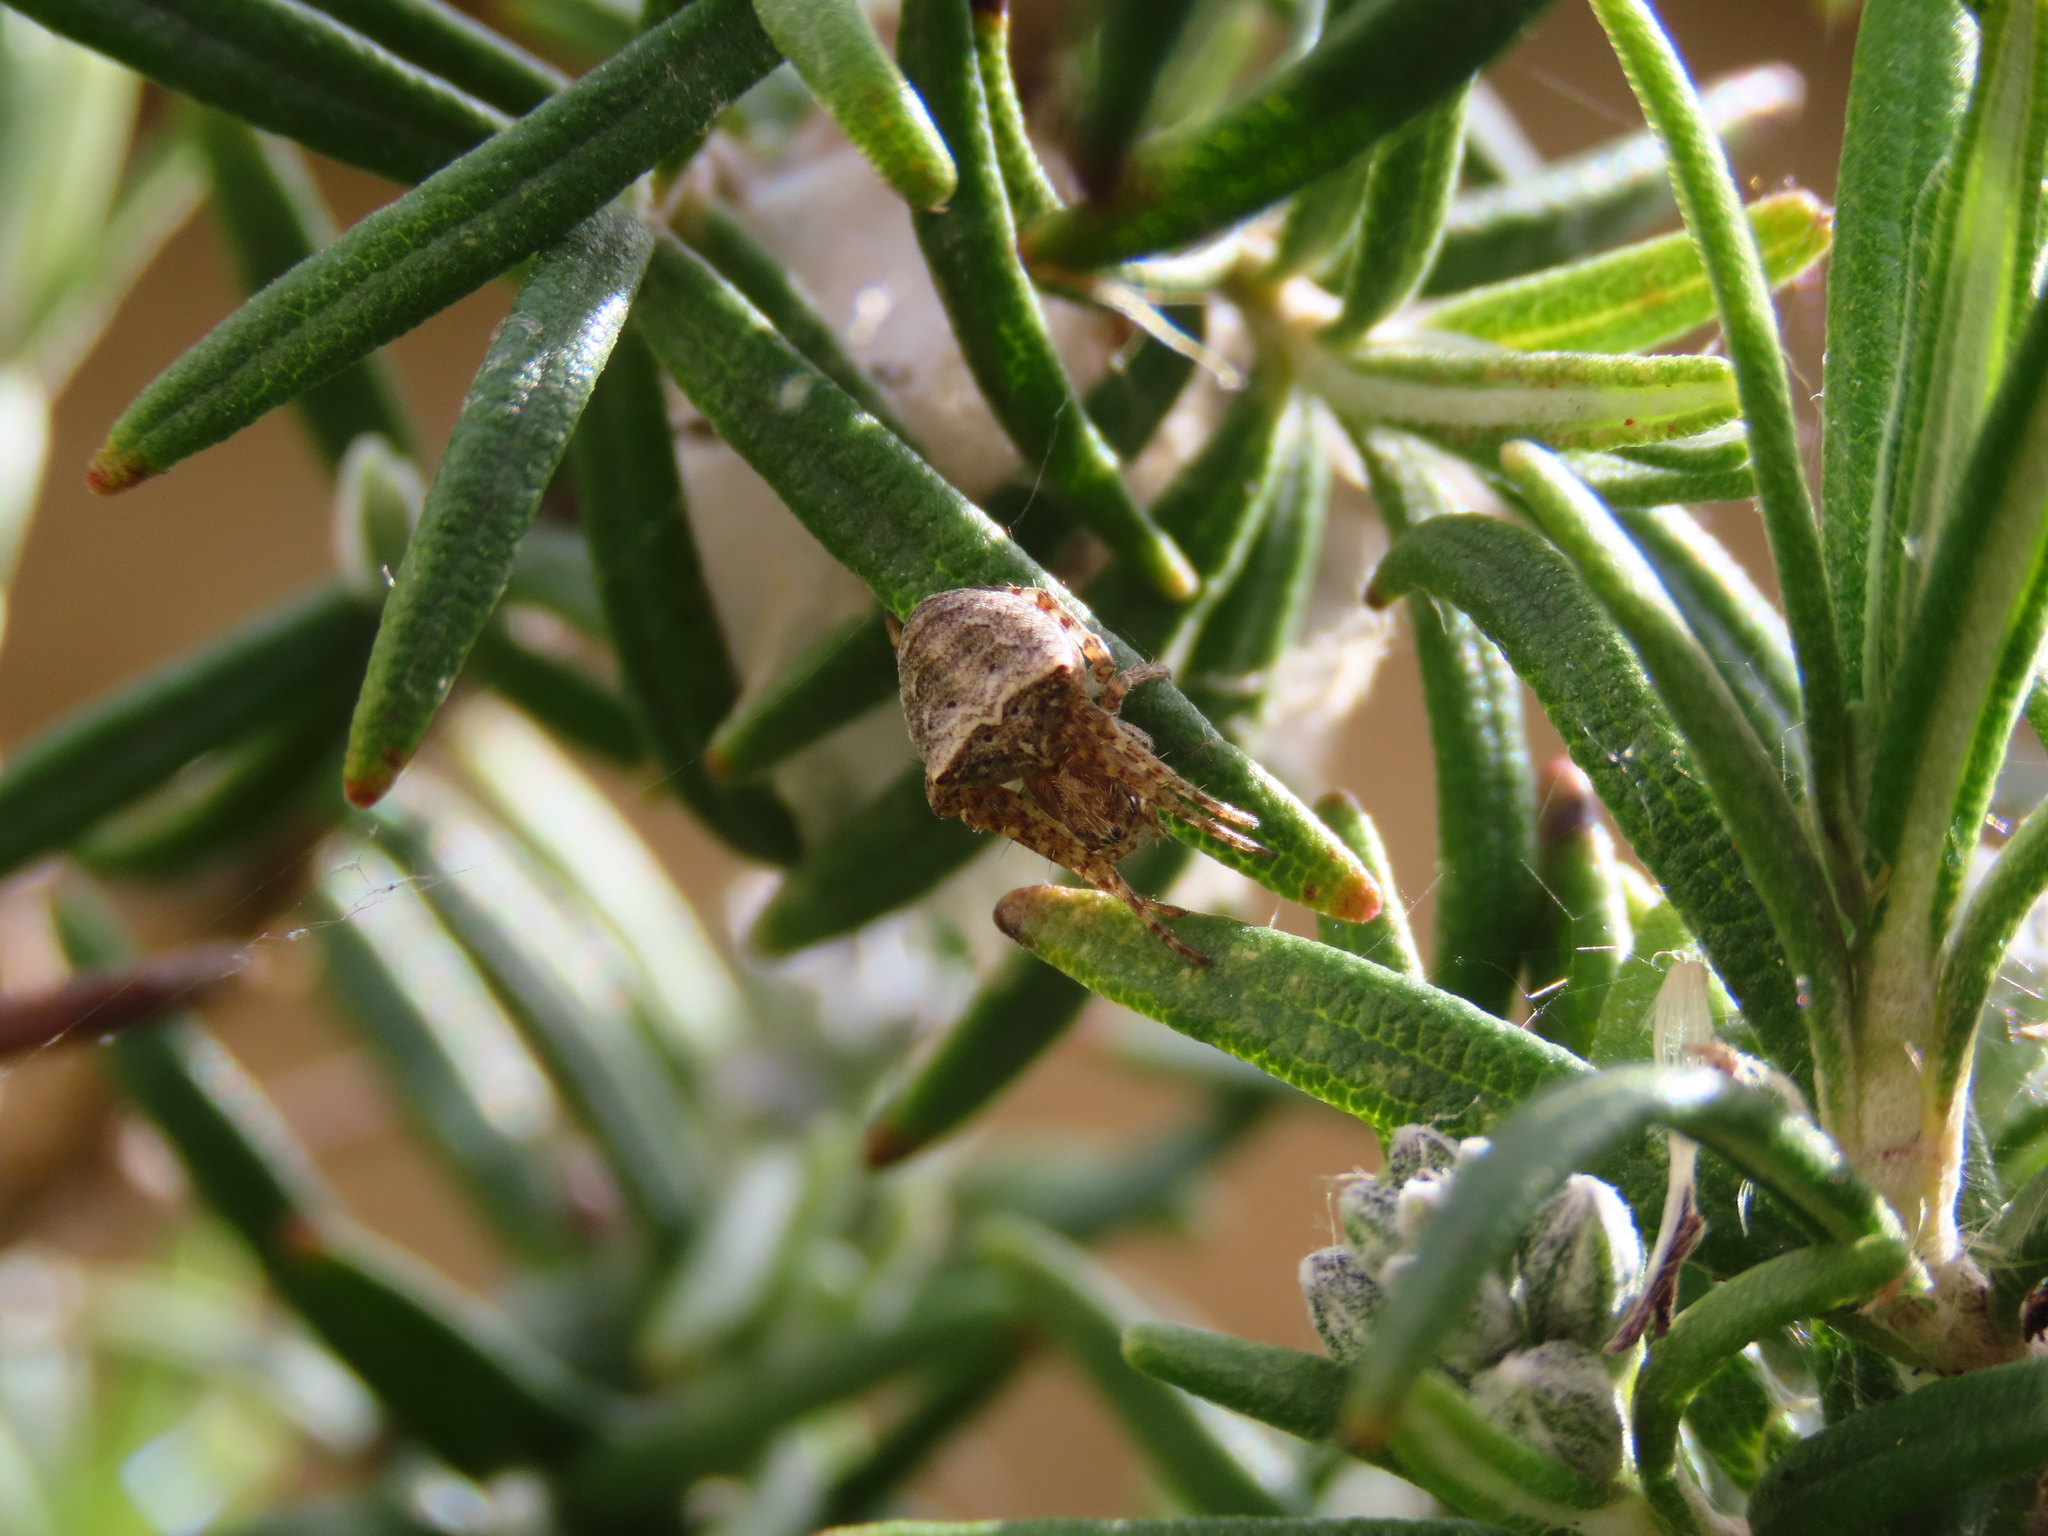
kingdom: Animalia
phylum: Arthropoda
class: Arachnida
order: Araneae
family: Araneidae
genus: Gibbaranea
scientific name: Gibbaranea bituberculata
